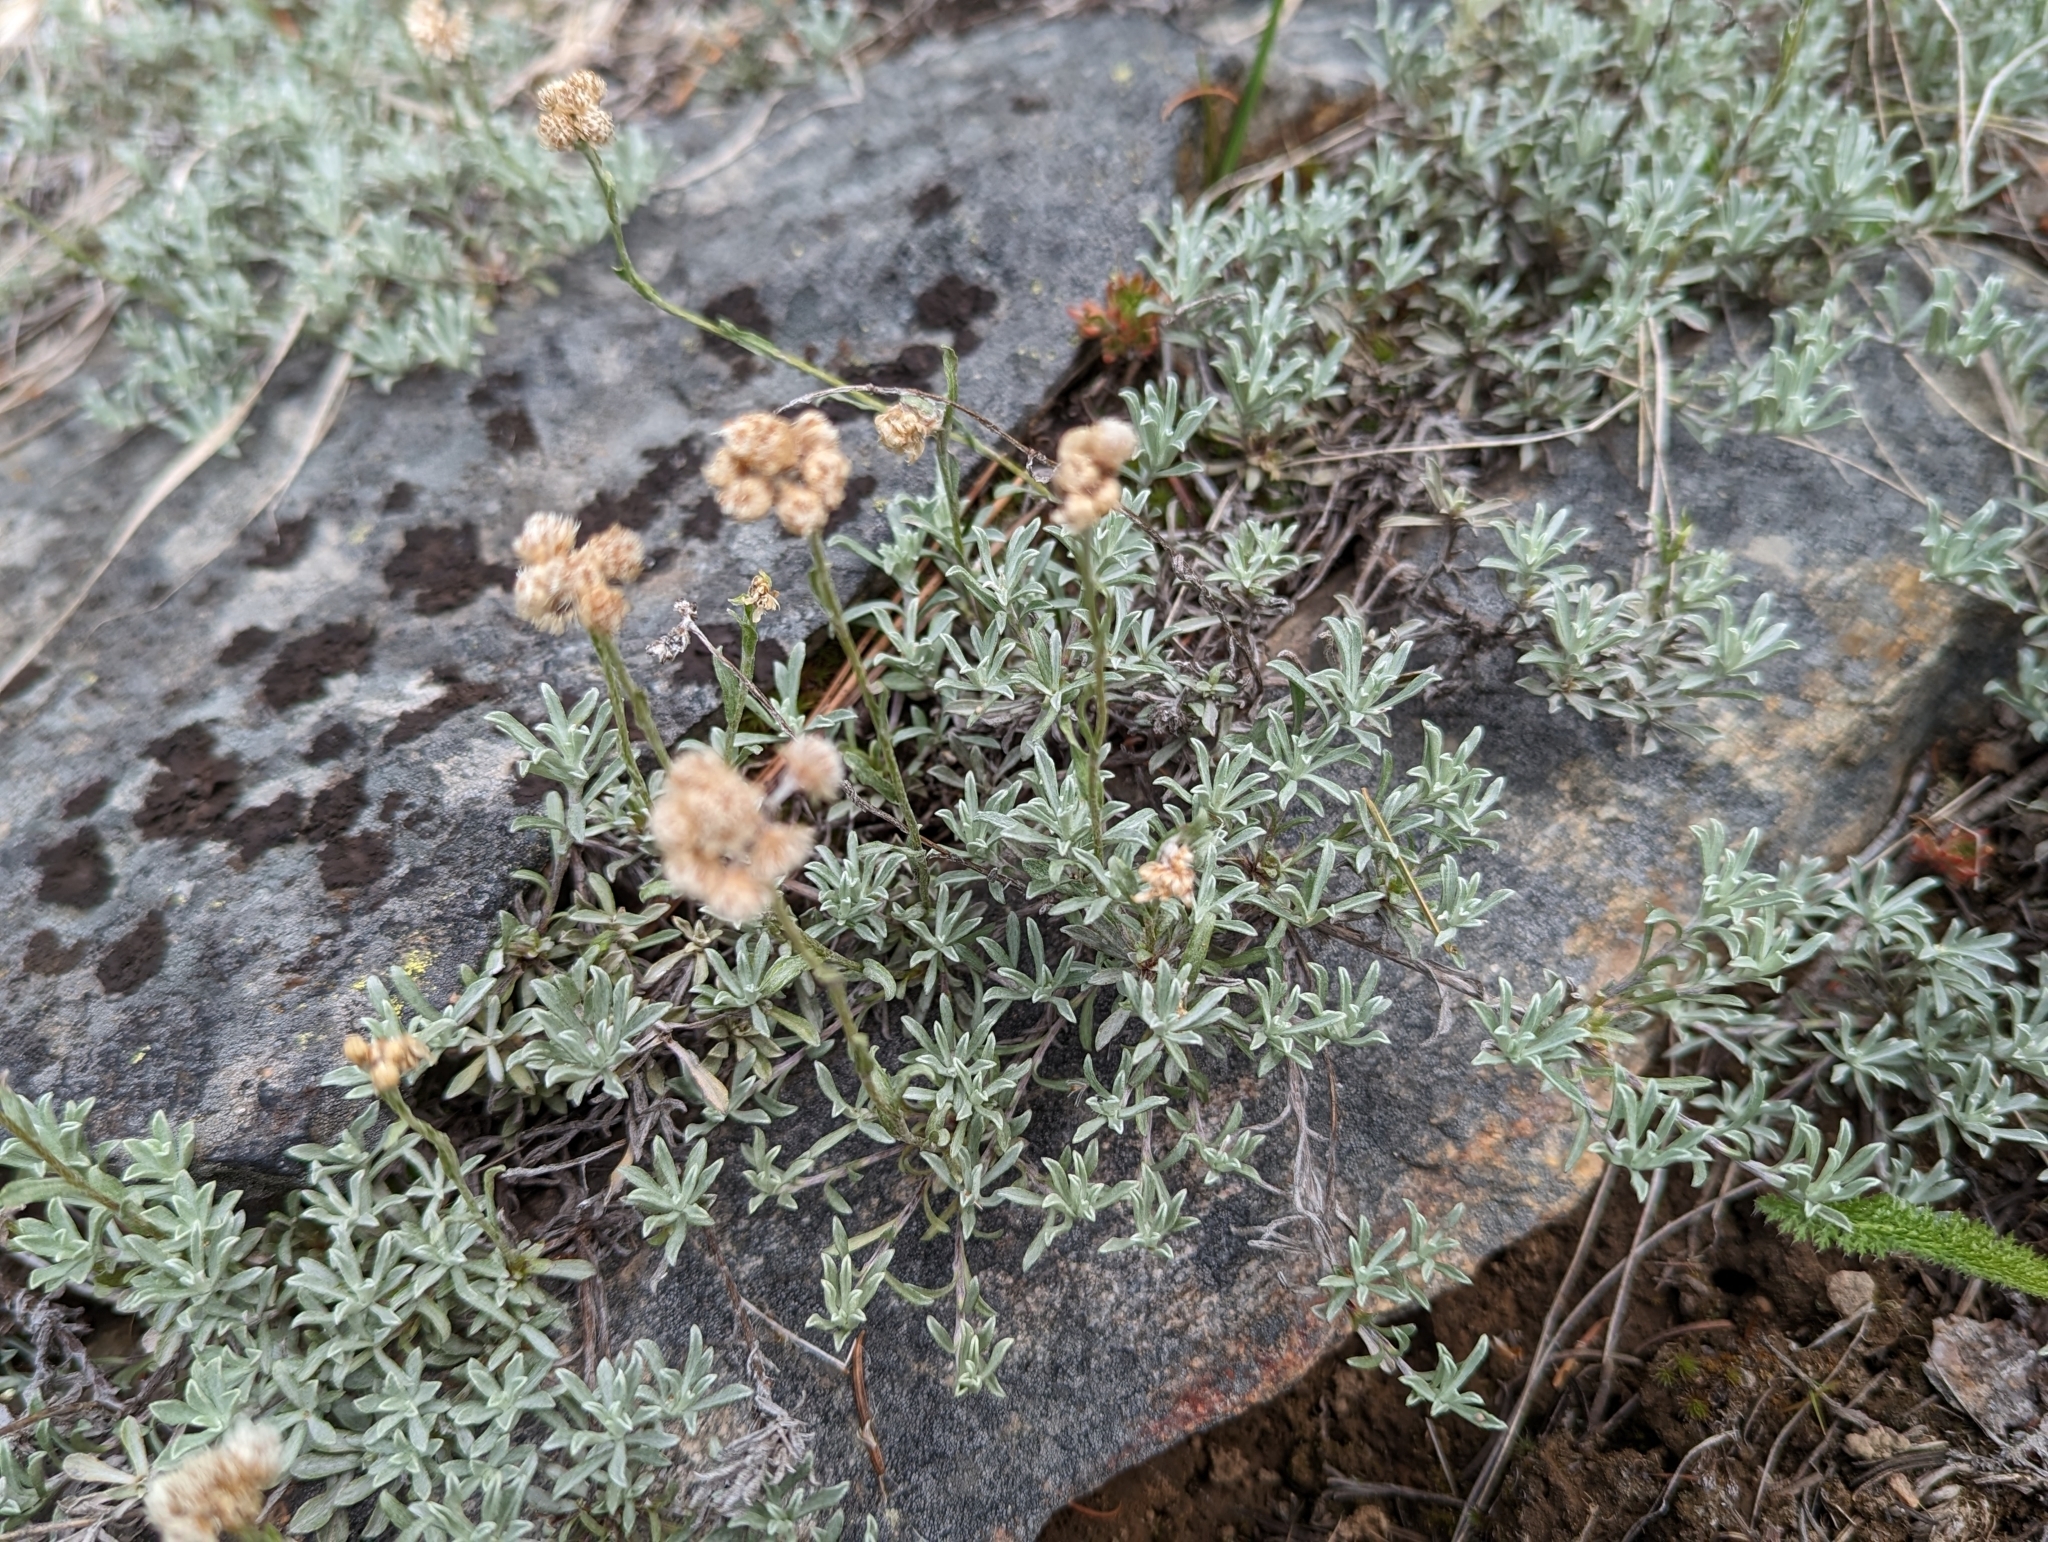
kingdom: Plantae
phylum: Tracheophyta
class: Magnoliopsida
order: Asterales
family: Asteraceae
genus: Antennaria
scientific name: Antennaria umbrinella
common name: Brown pussytoes
